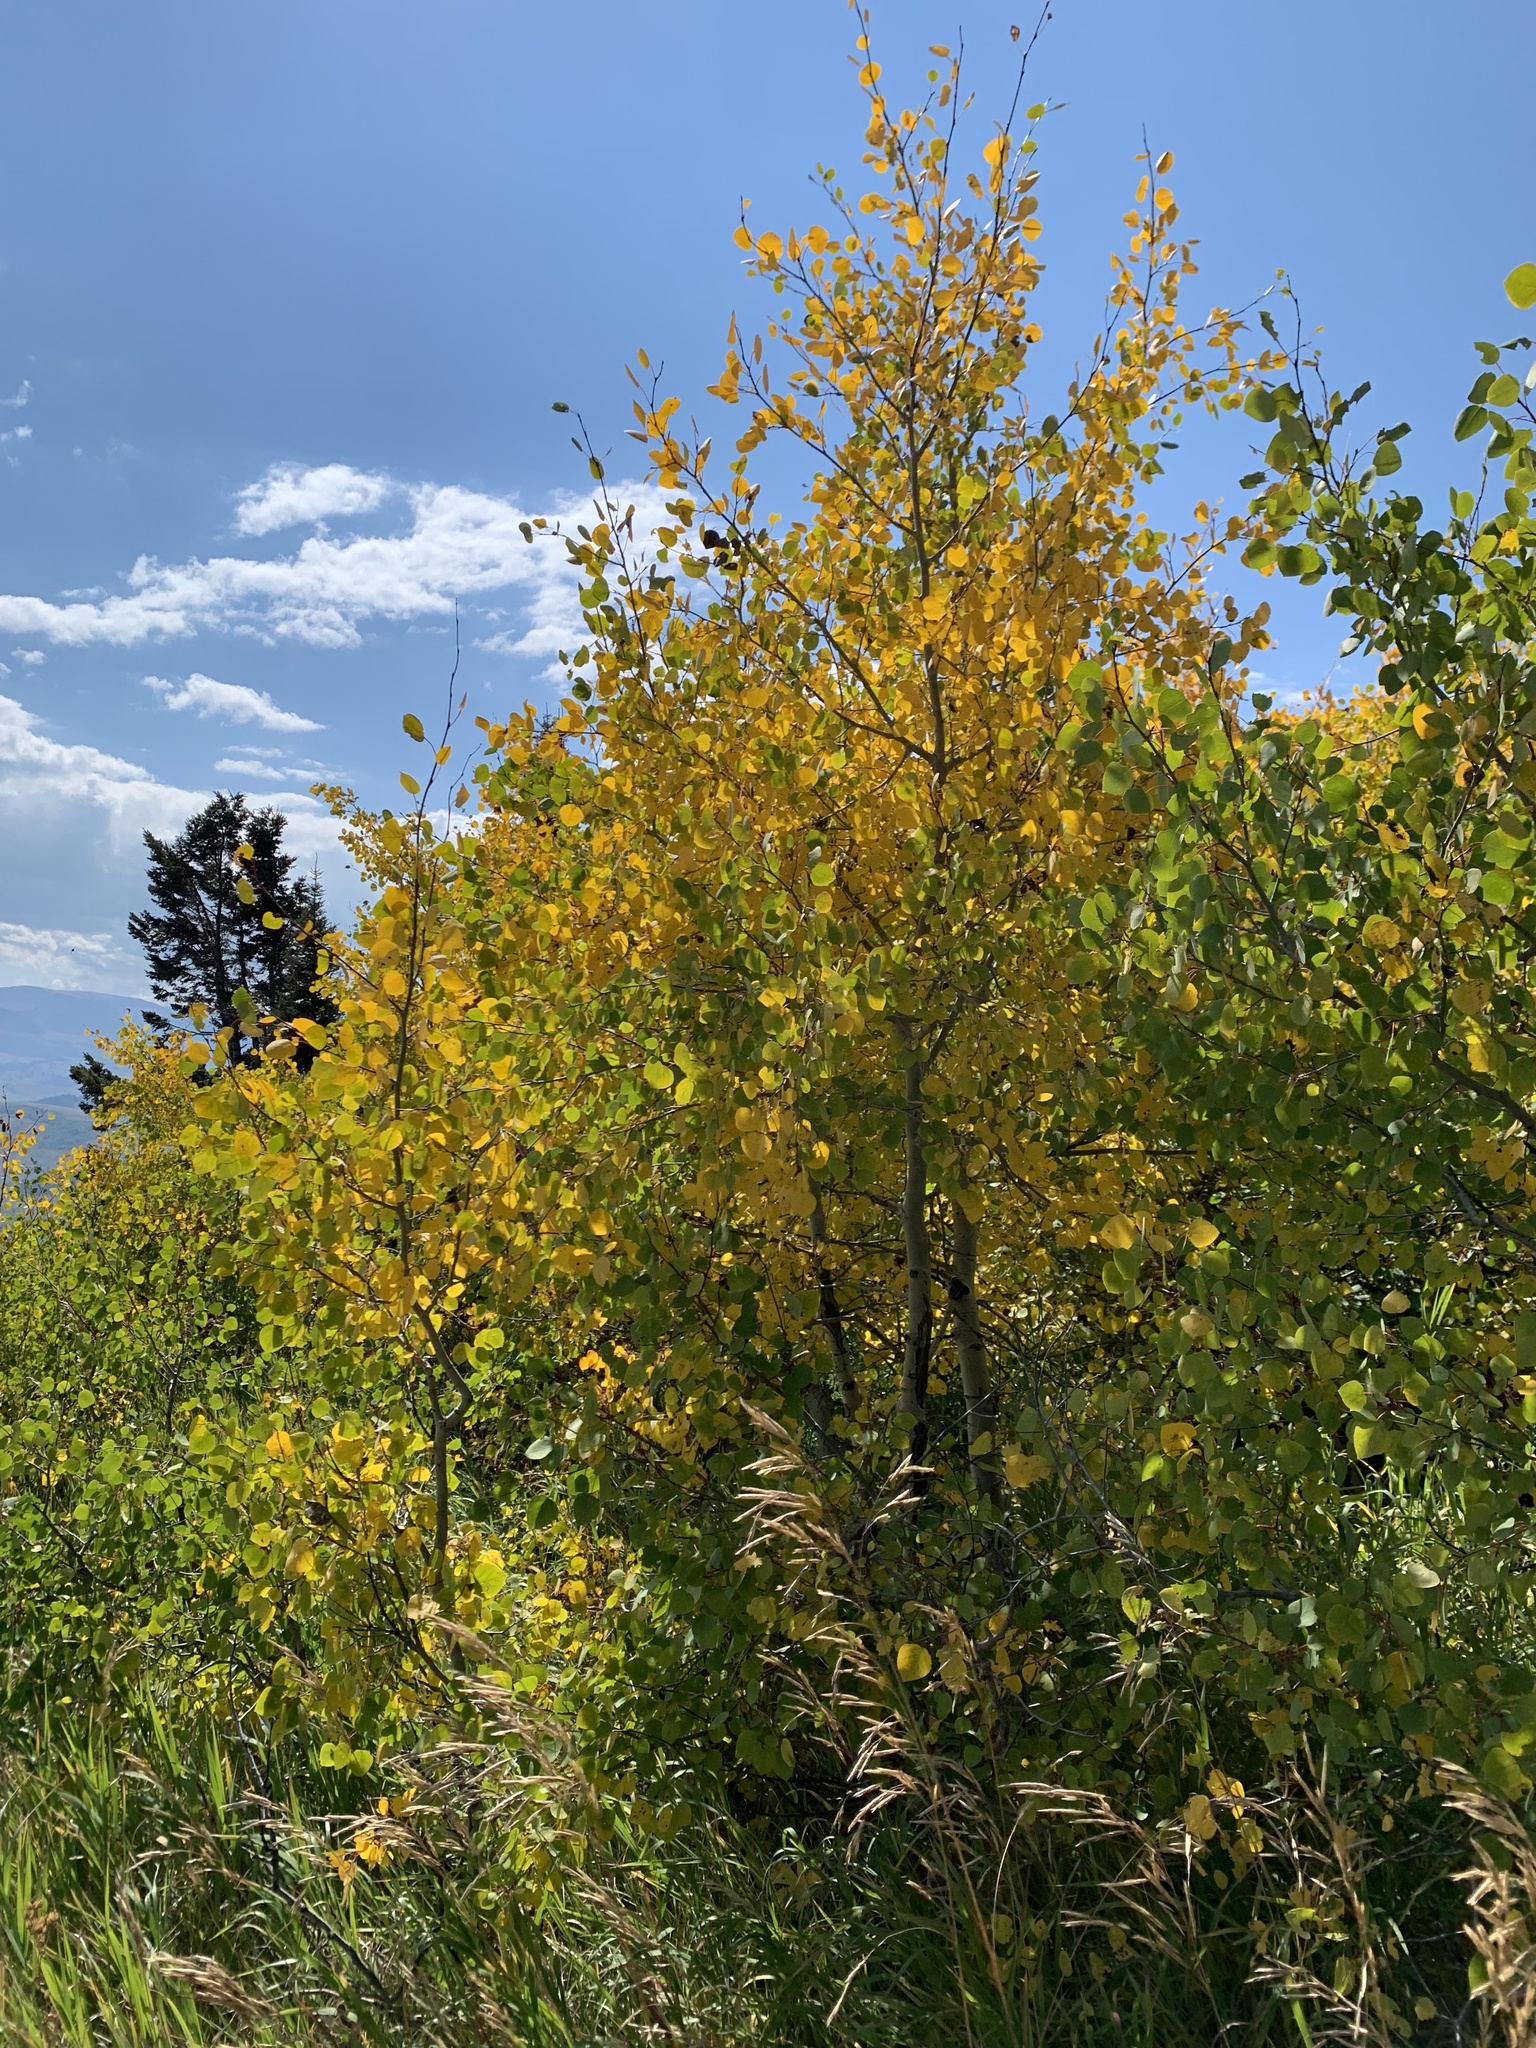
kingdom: Plantae
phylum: Tracheophyta
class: Magnoliopsida
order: Malpighiales
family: Salicaceae
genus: Populus
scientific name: Populus tremuloides
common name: Quaking aspen
